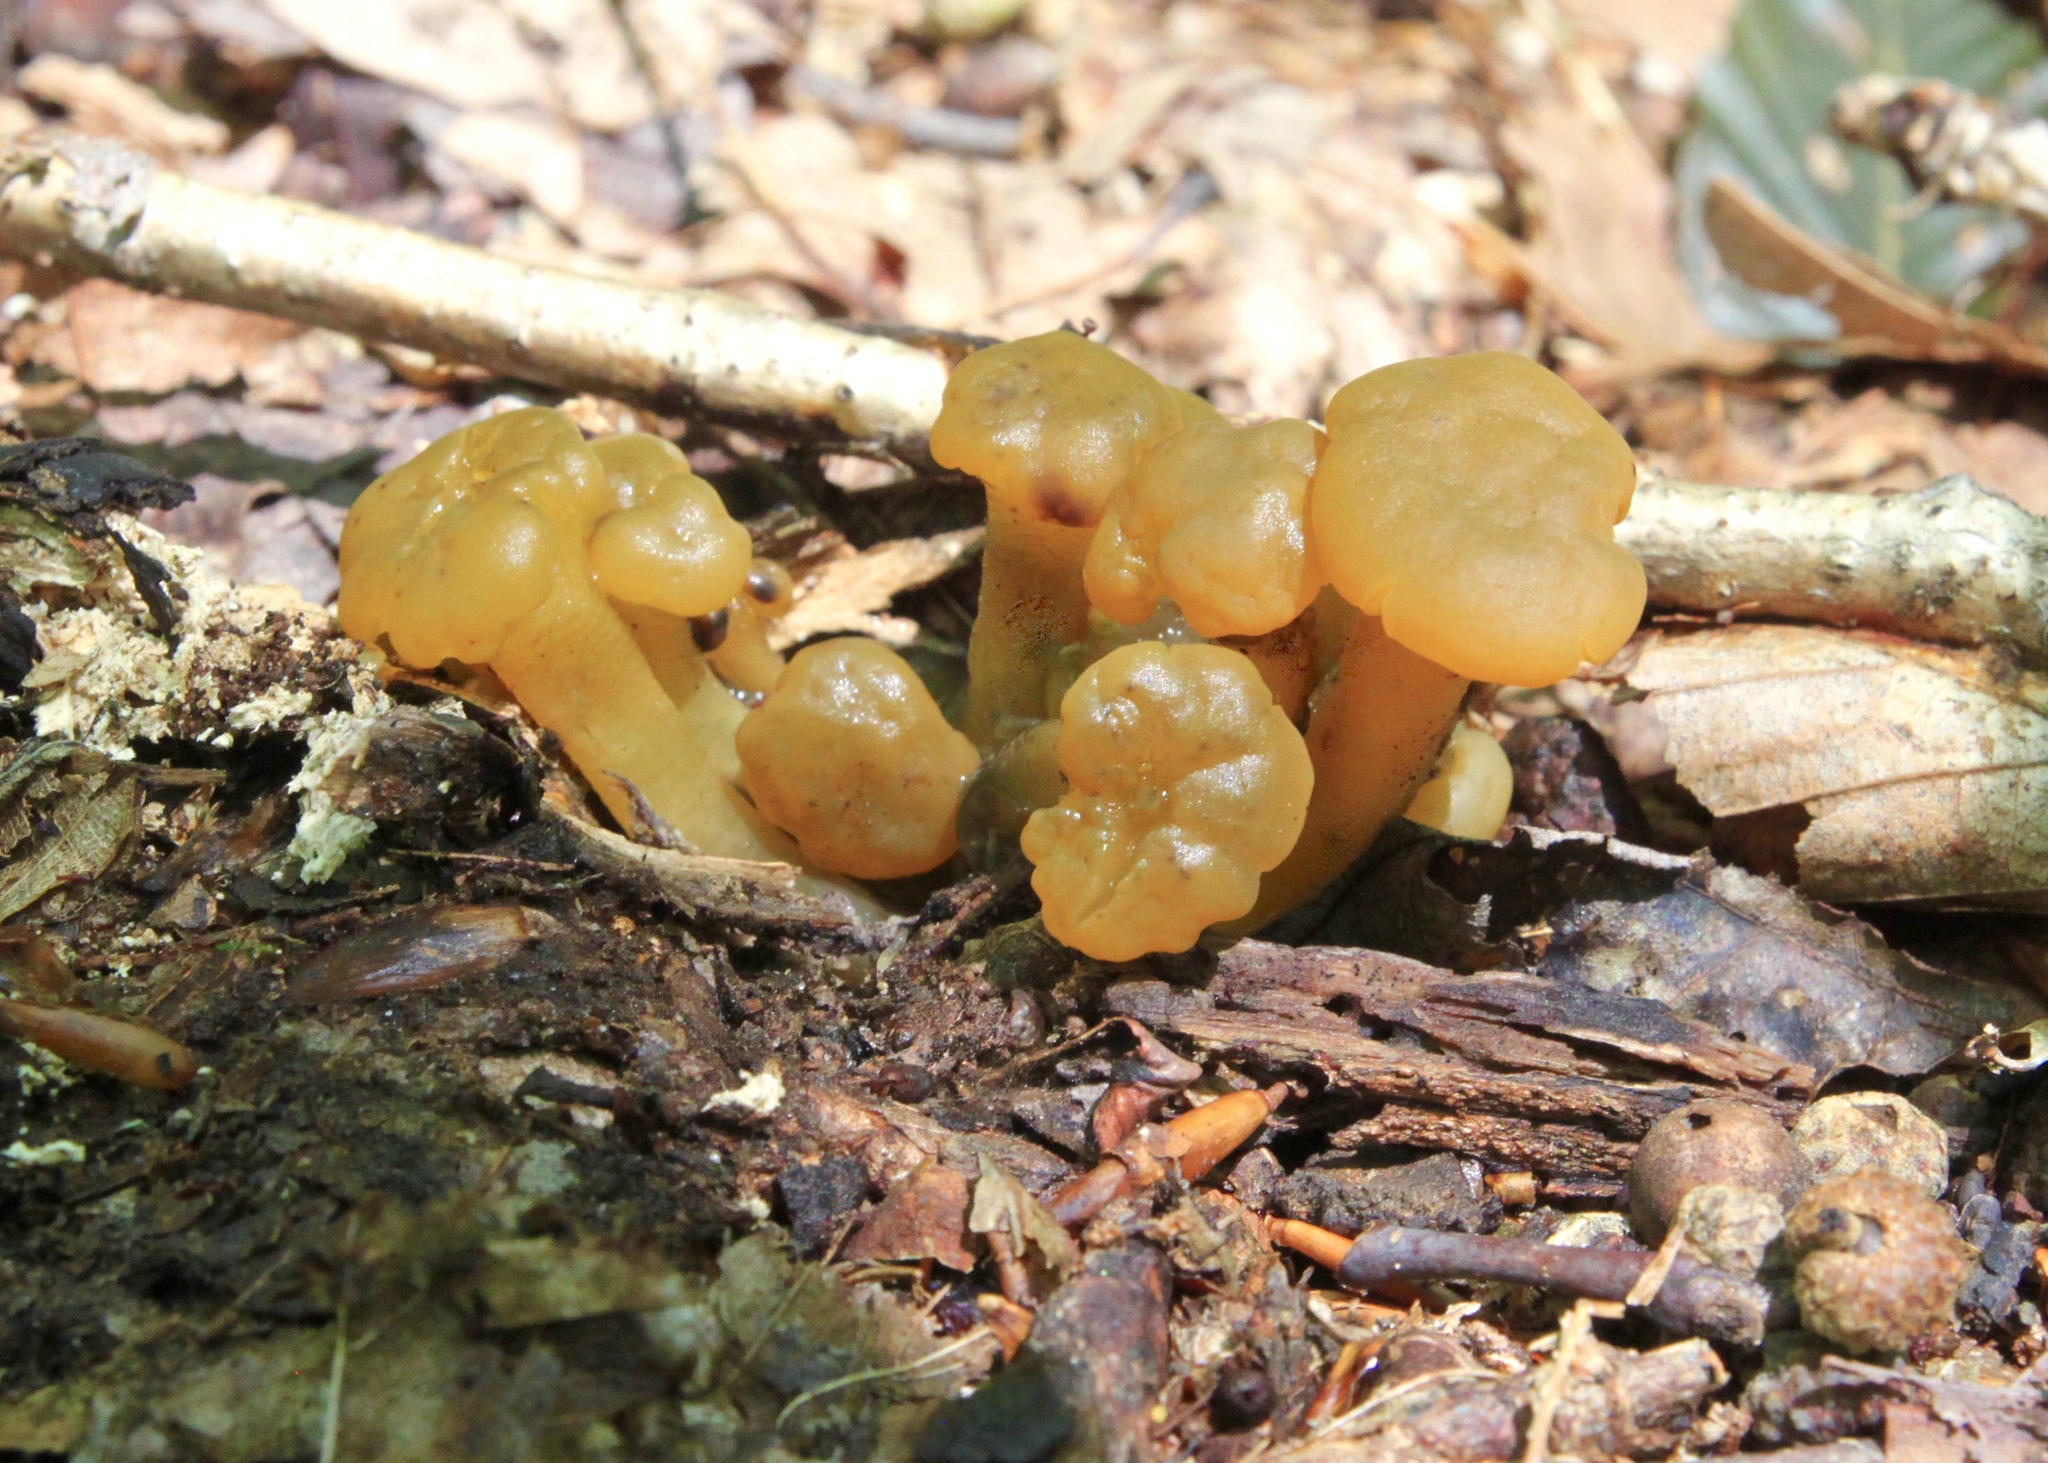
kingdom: Fungi
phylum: Ascomycota
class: Leotiomycetes
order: Leotiales
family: Leotiaceae
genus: Leotia
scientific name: Leotia lubrica
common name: Jellybaby
